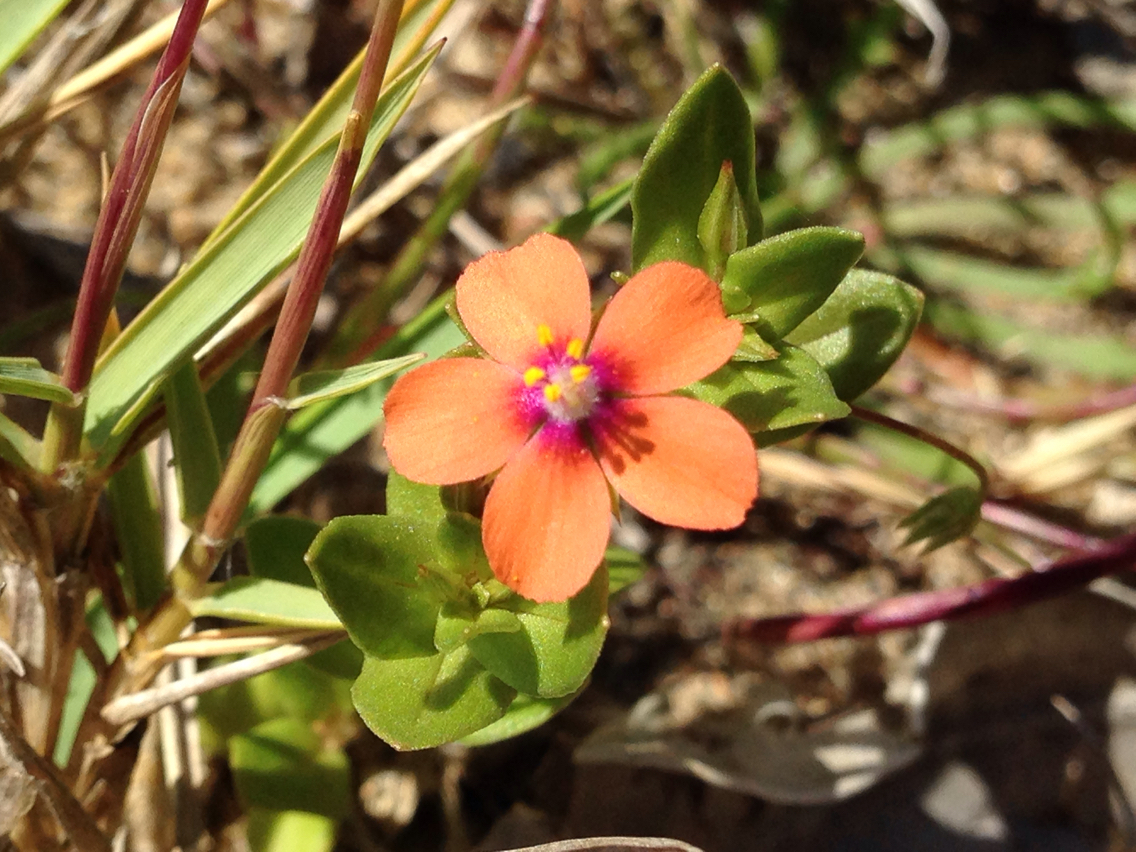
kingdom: Plantae
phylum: Tracheophyta
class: Magnoliopsida
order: Ericales
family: Primulaceae
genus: Lysimachia
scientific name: Lysimachia arvensis
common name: Scarlet pimpernel
